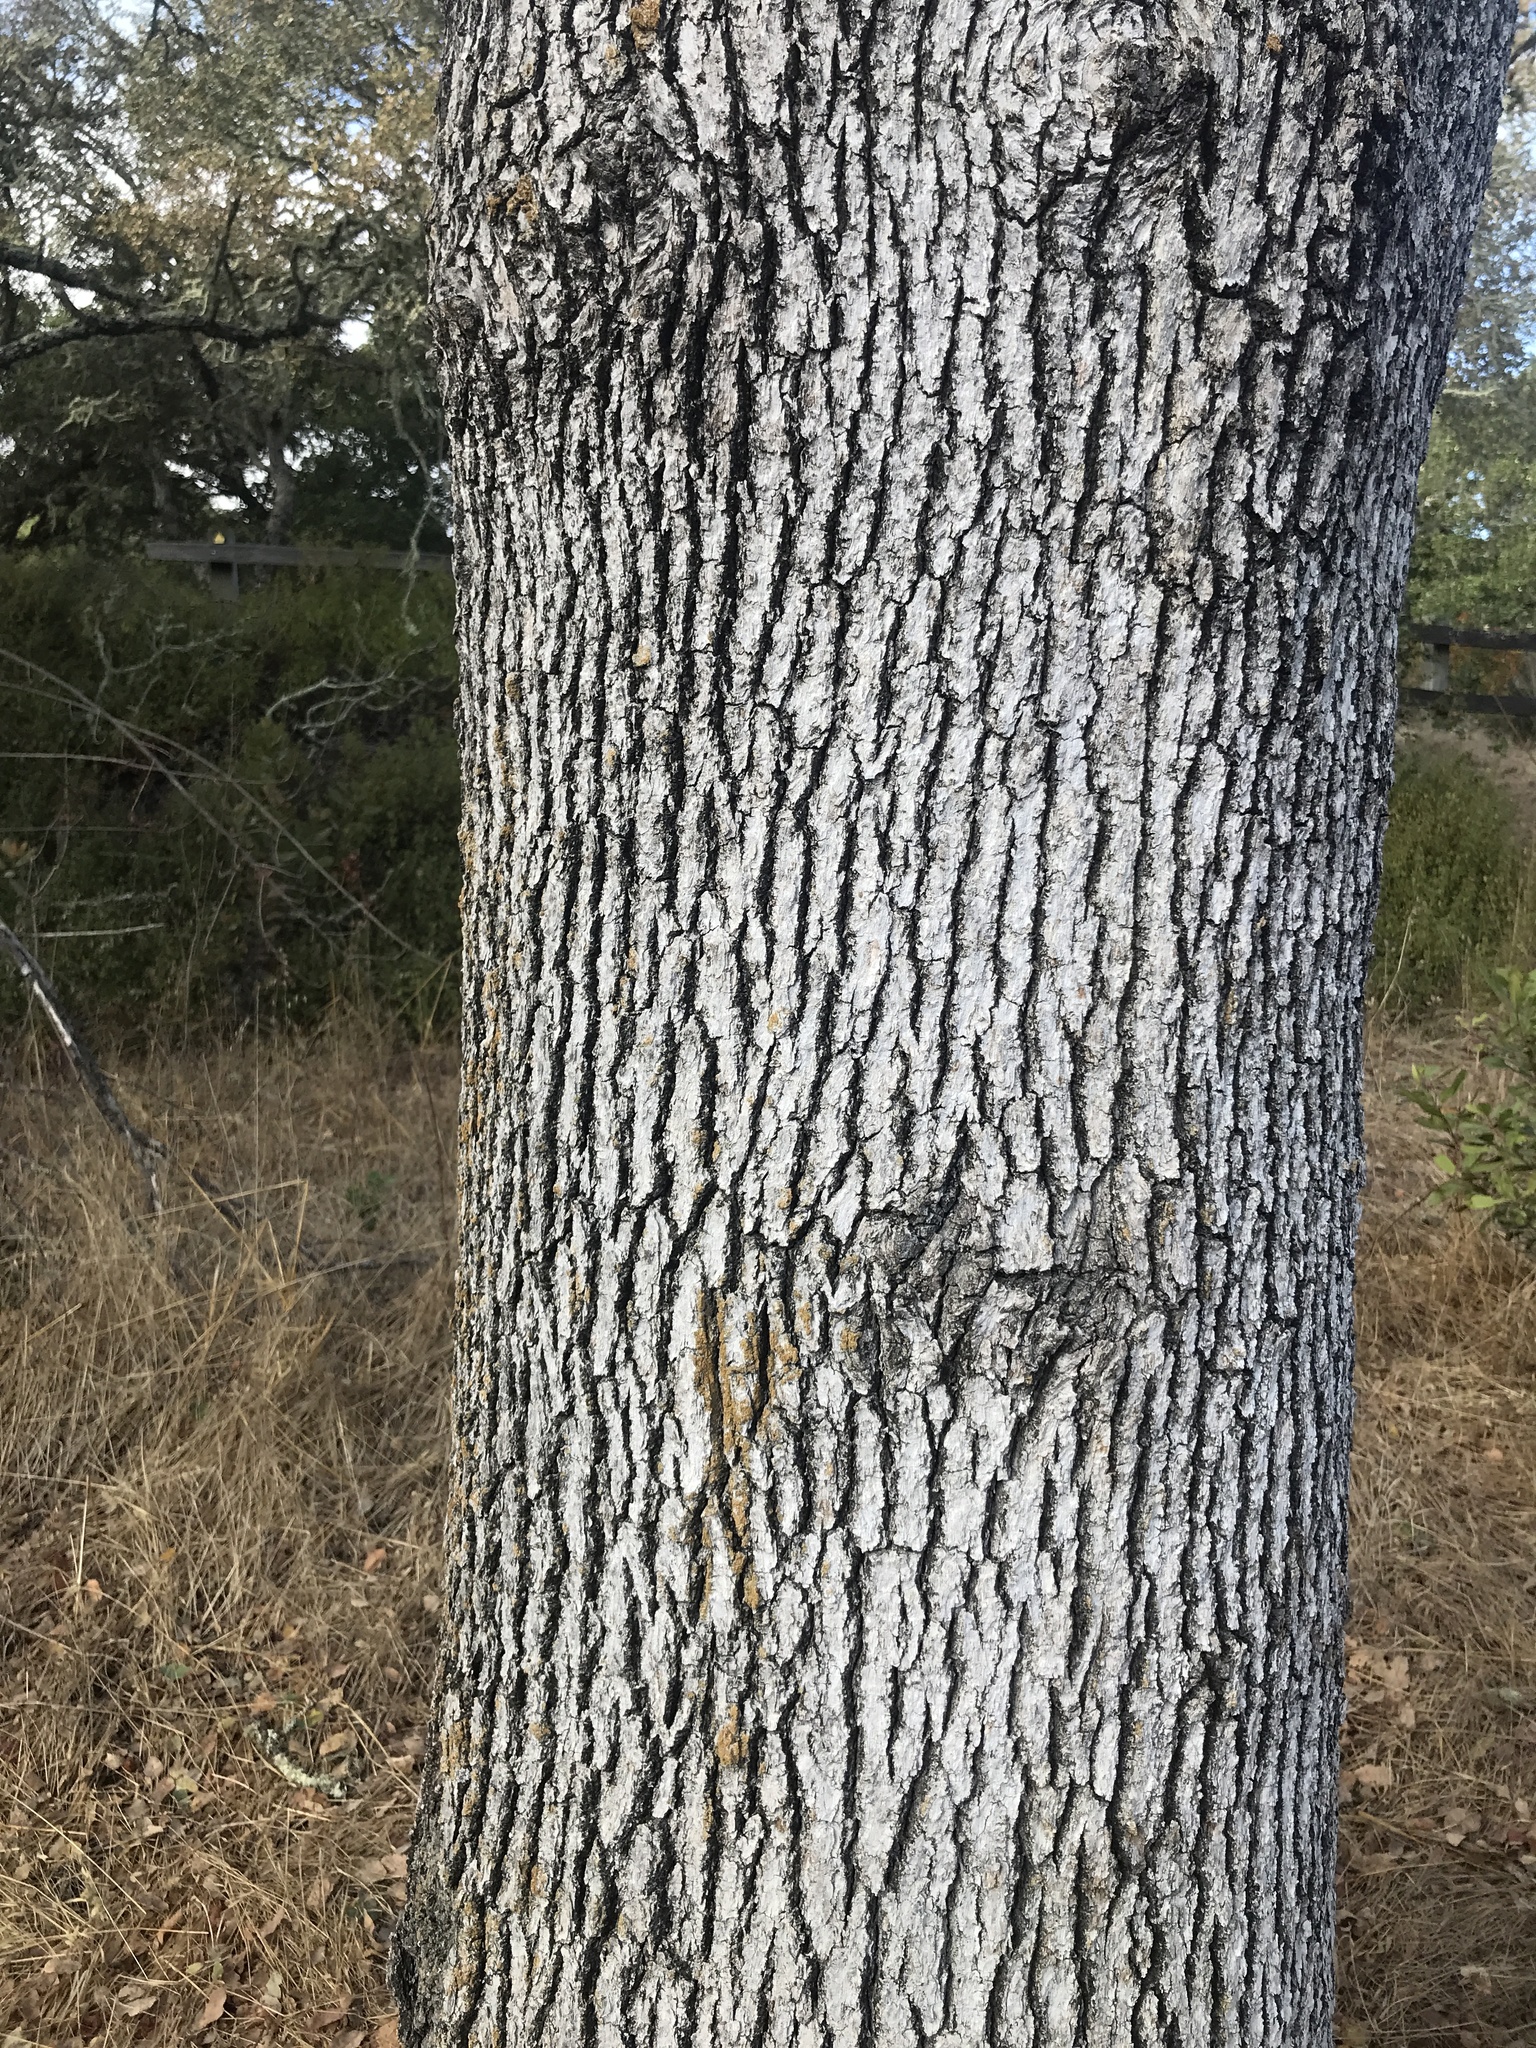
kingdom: Plantae
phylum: Tracheophyta
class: Magnoliopsida
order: Fagales
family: Fagaceae
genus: Quercus
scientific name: Quercus douglasii
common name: Blue oak
